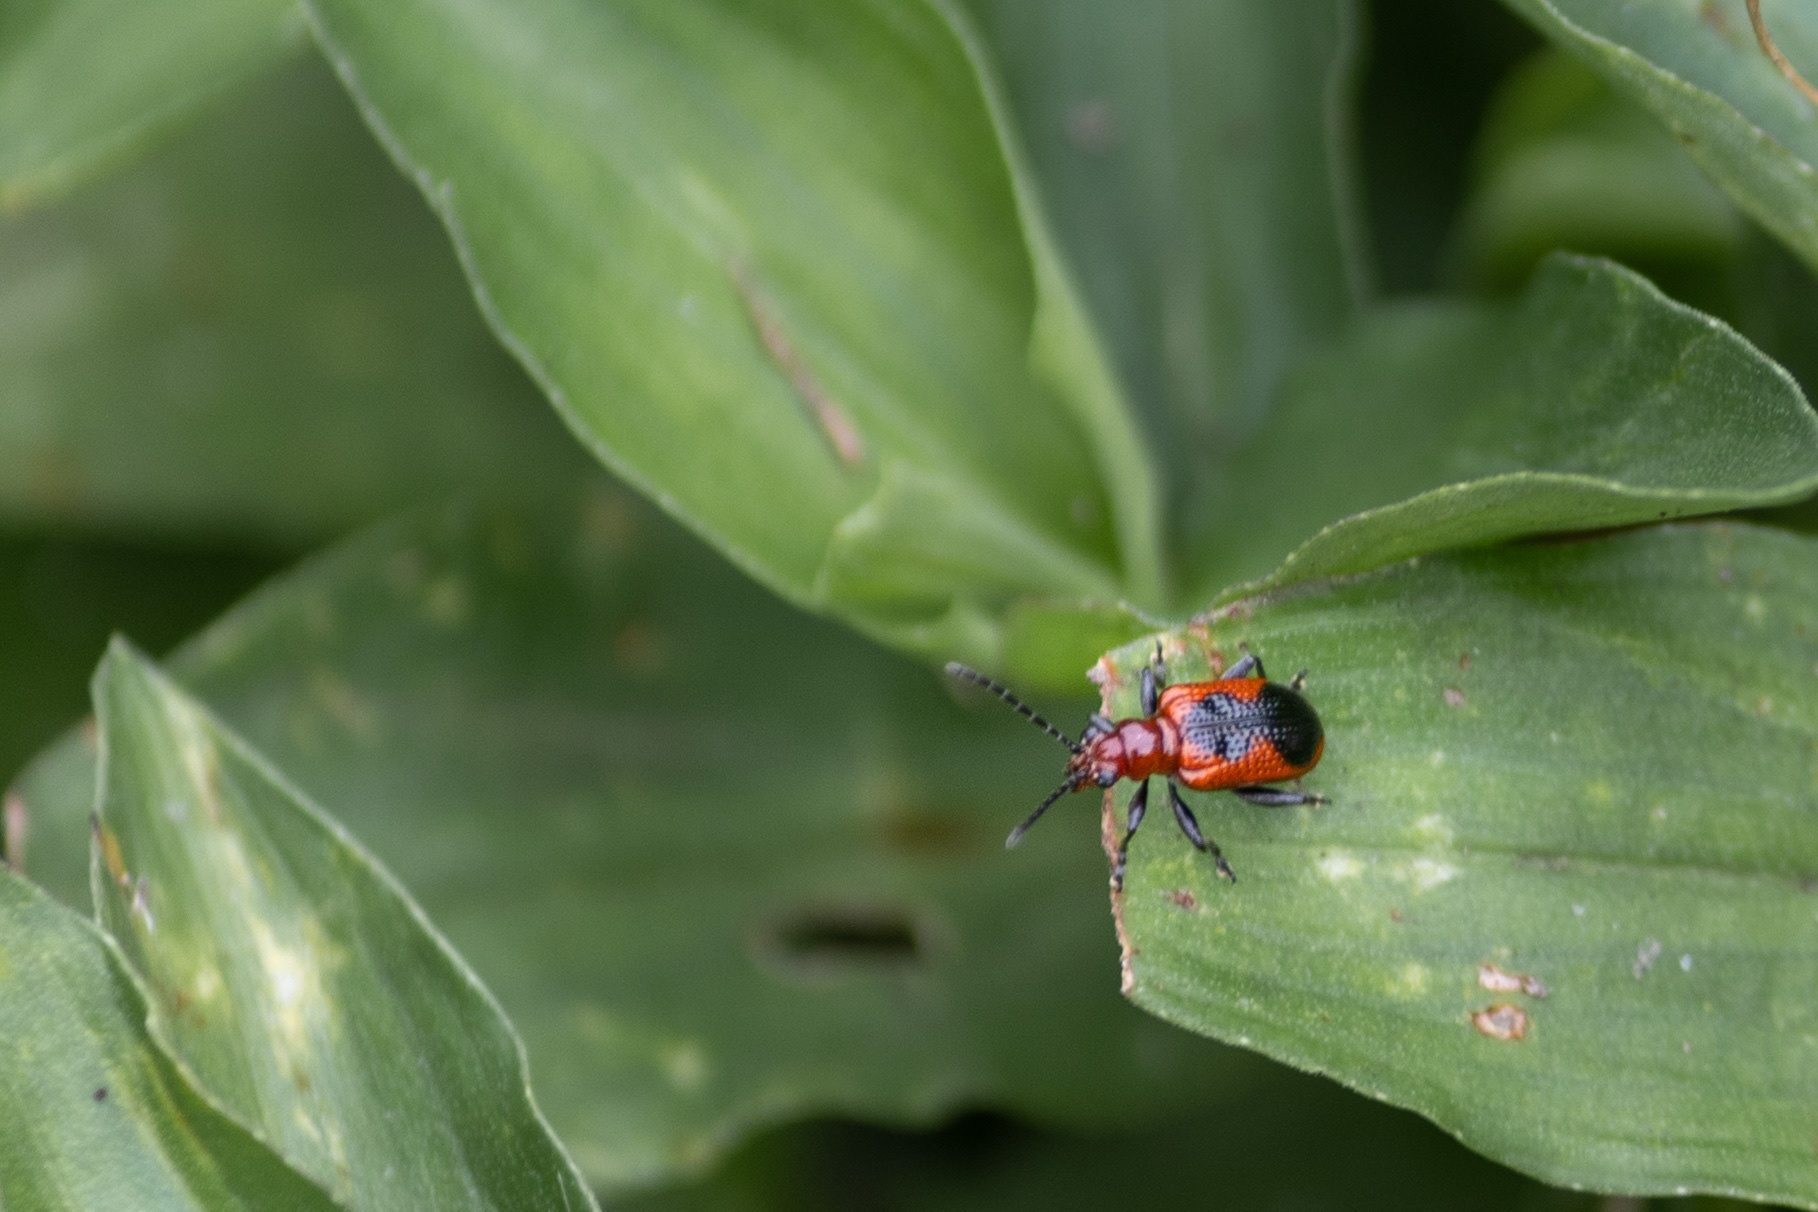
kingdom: Animalia
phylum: Arthropoda
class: Insecta
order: Coleoptera
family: Chrysomelidae
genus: Neolema
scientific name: Neolema ephippium
